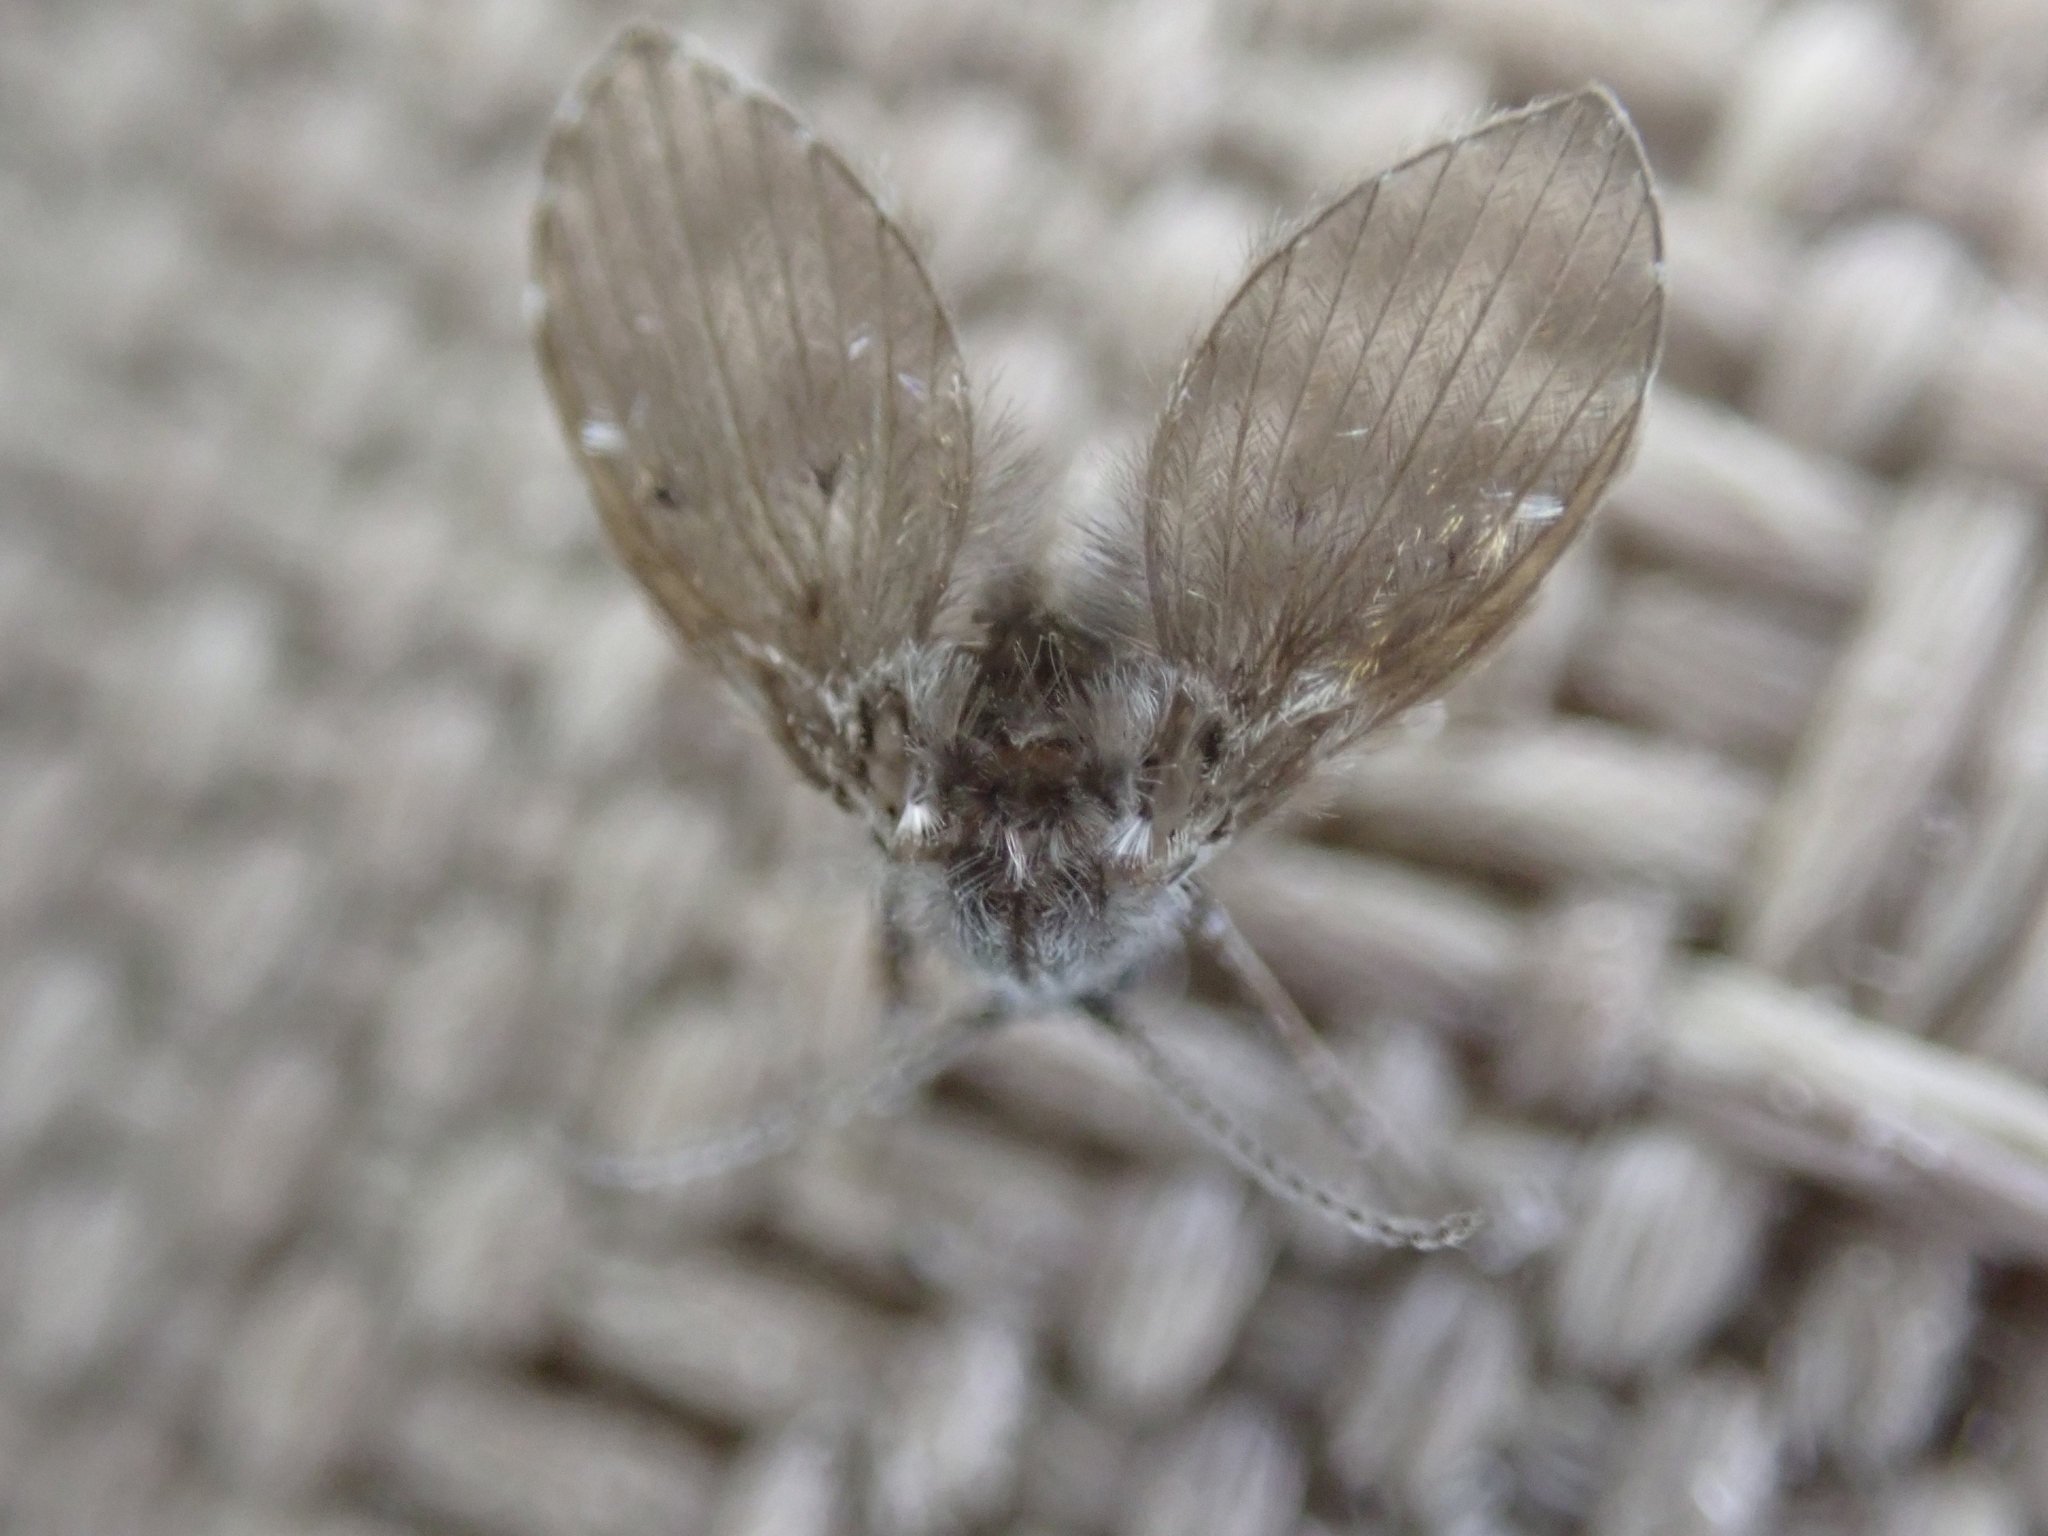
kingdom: Animalia
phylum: Arthropoda
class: Insecta
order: Diptera
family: Psychodidae
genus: Clogmia
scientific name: Clogmia albipunctatus
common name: White-spotted moth fly
